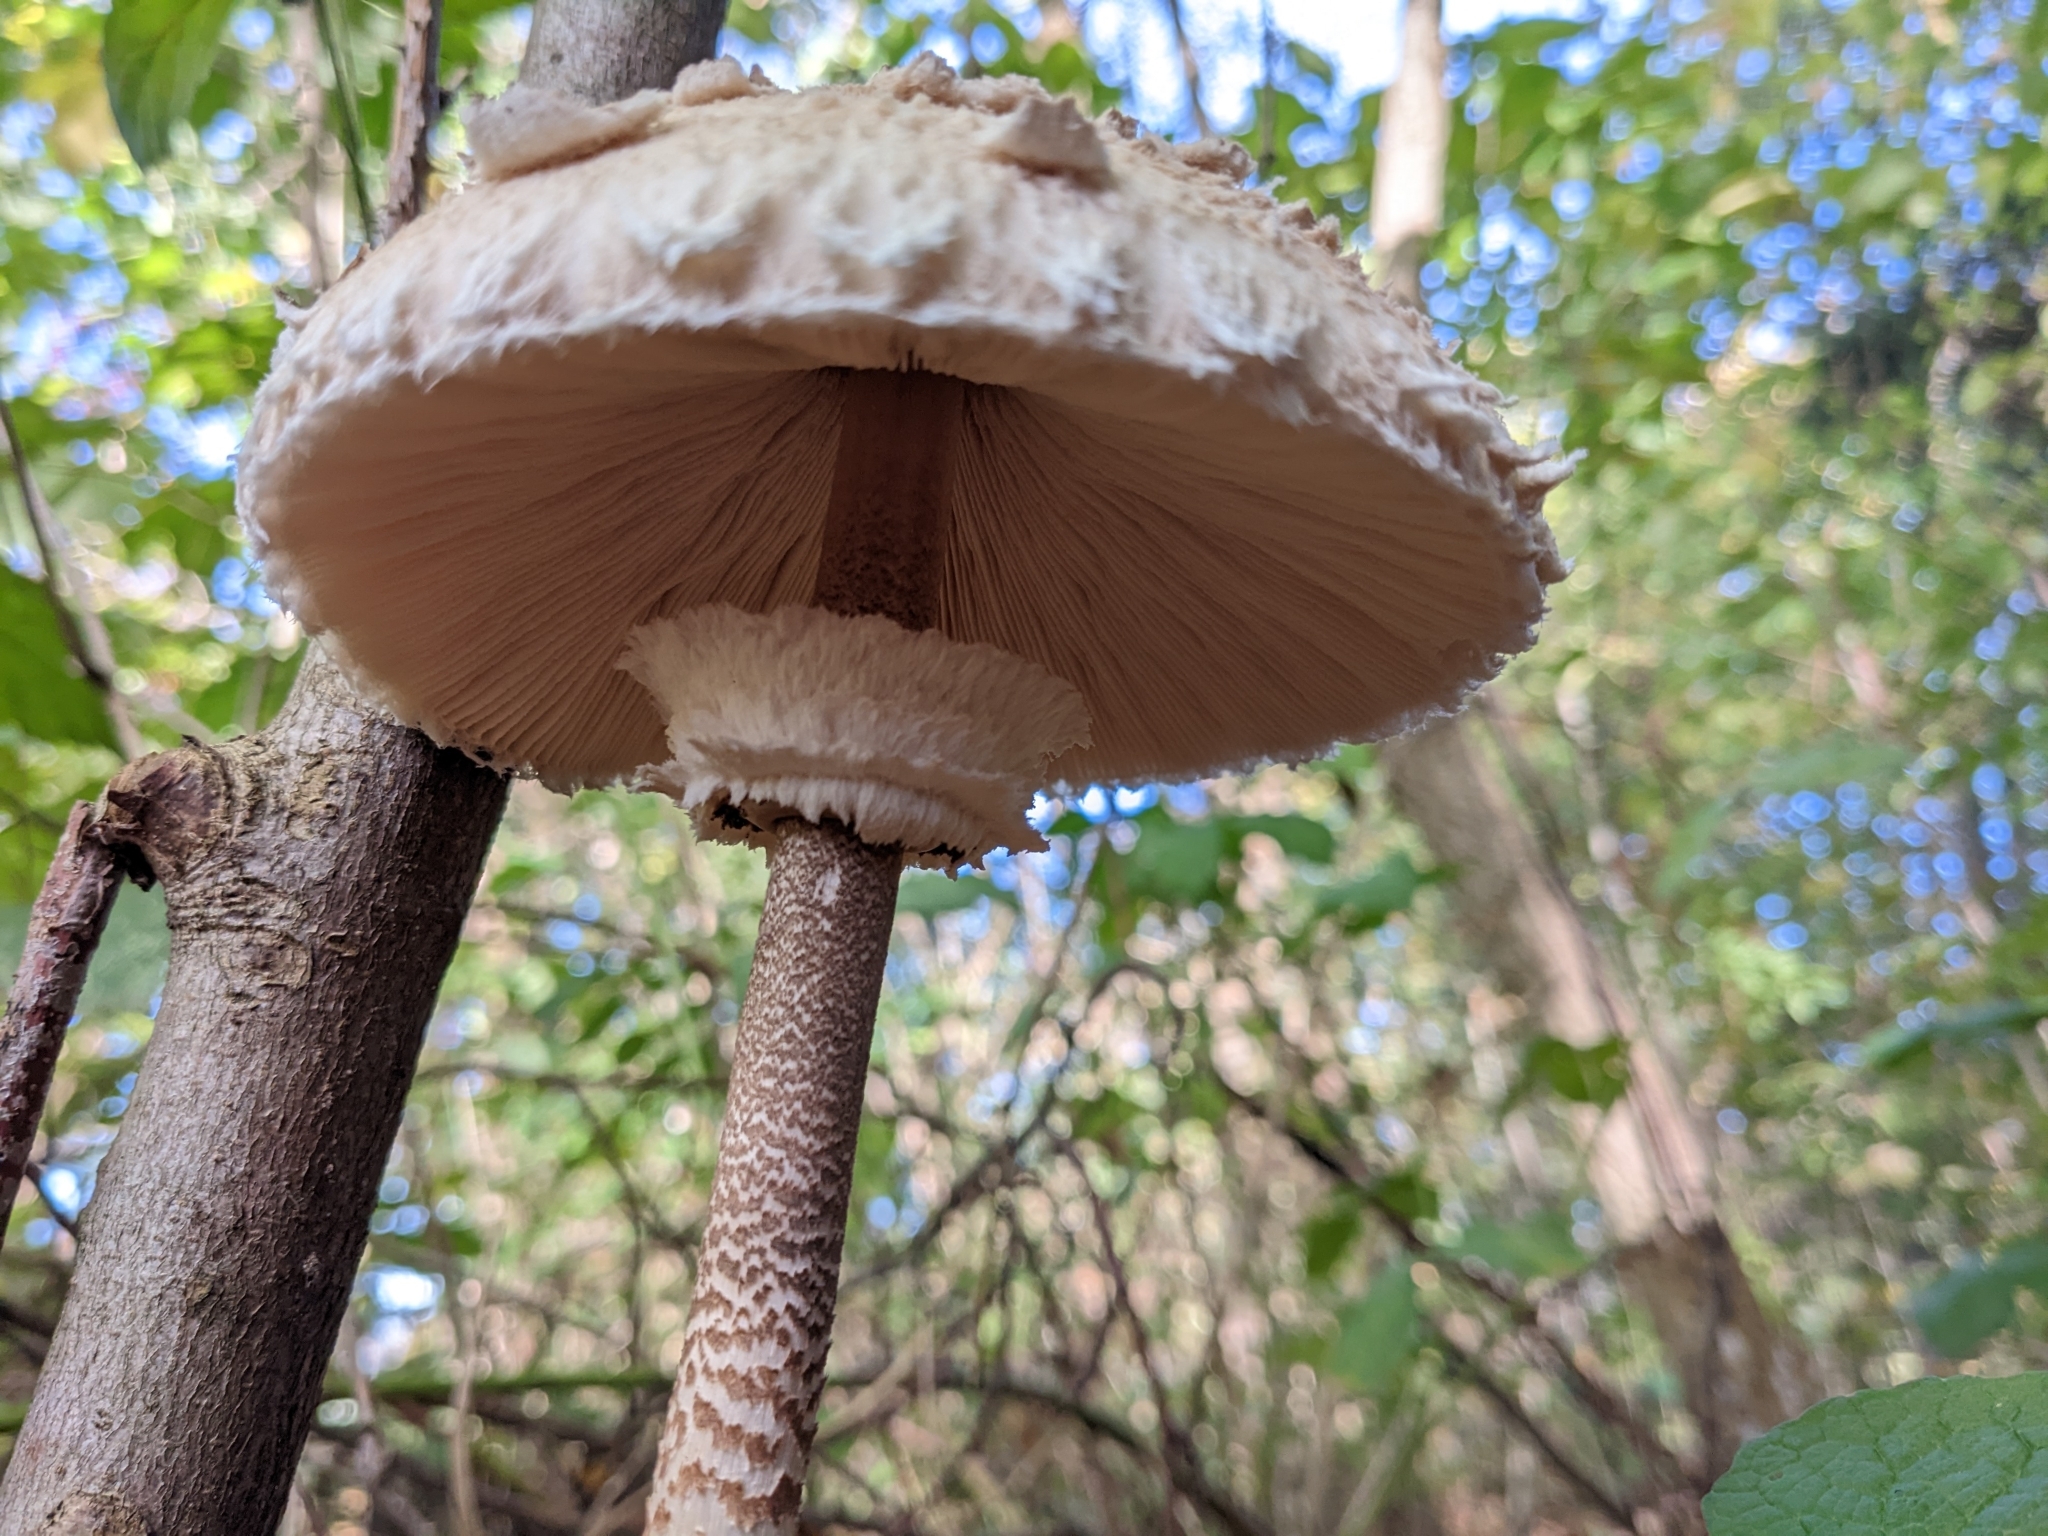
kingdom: Fungi
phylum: Basidiomycota
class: Agaricomycetes
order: Agaricales
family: Agaricaceae
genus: Macrolepiota
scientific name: Macrolepiota procera
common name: Parasol
